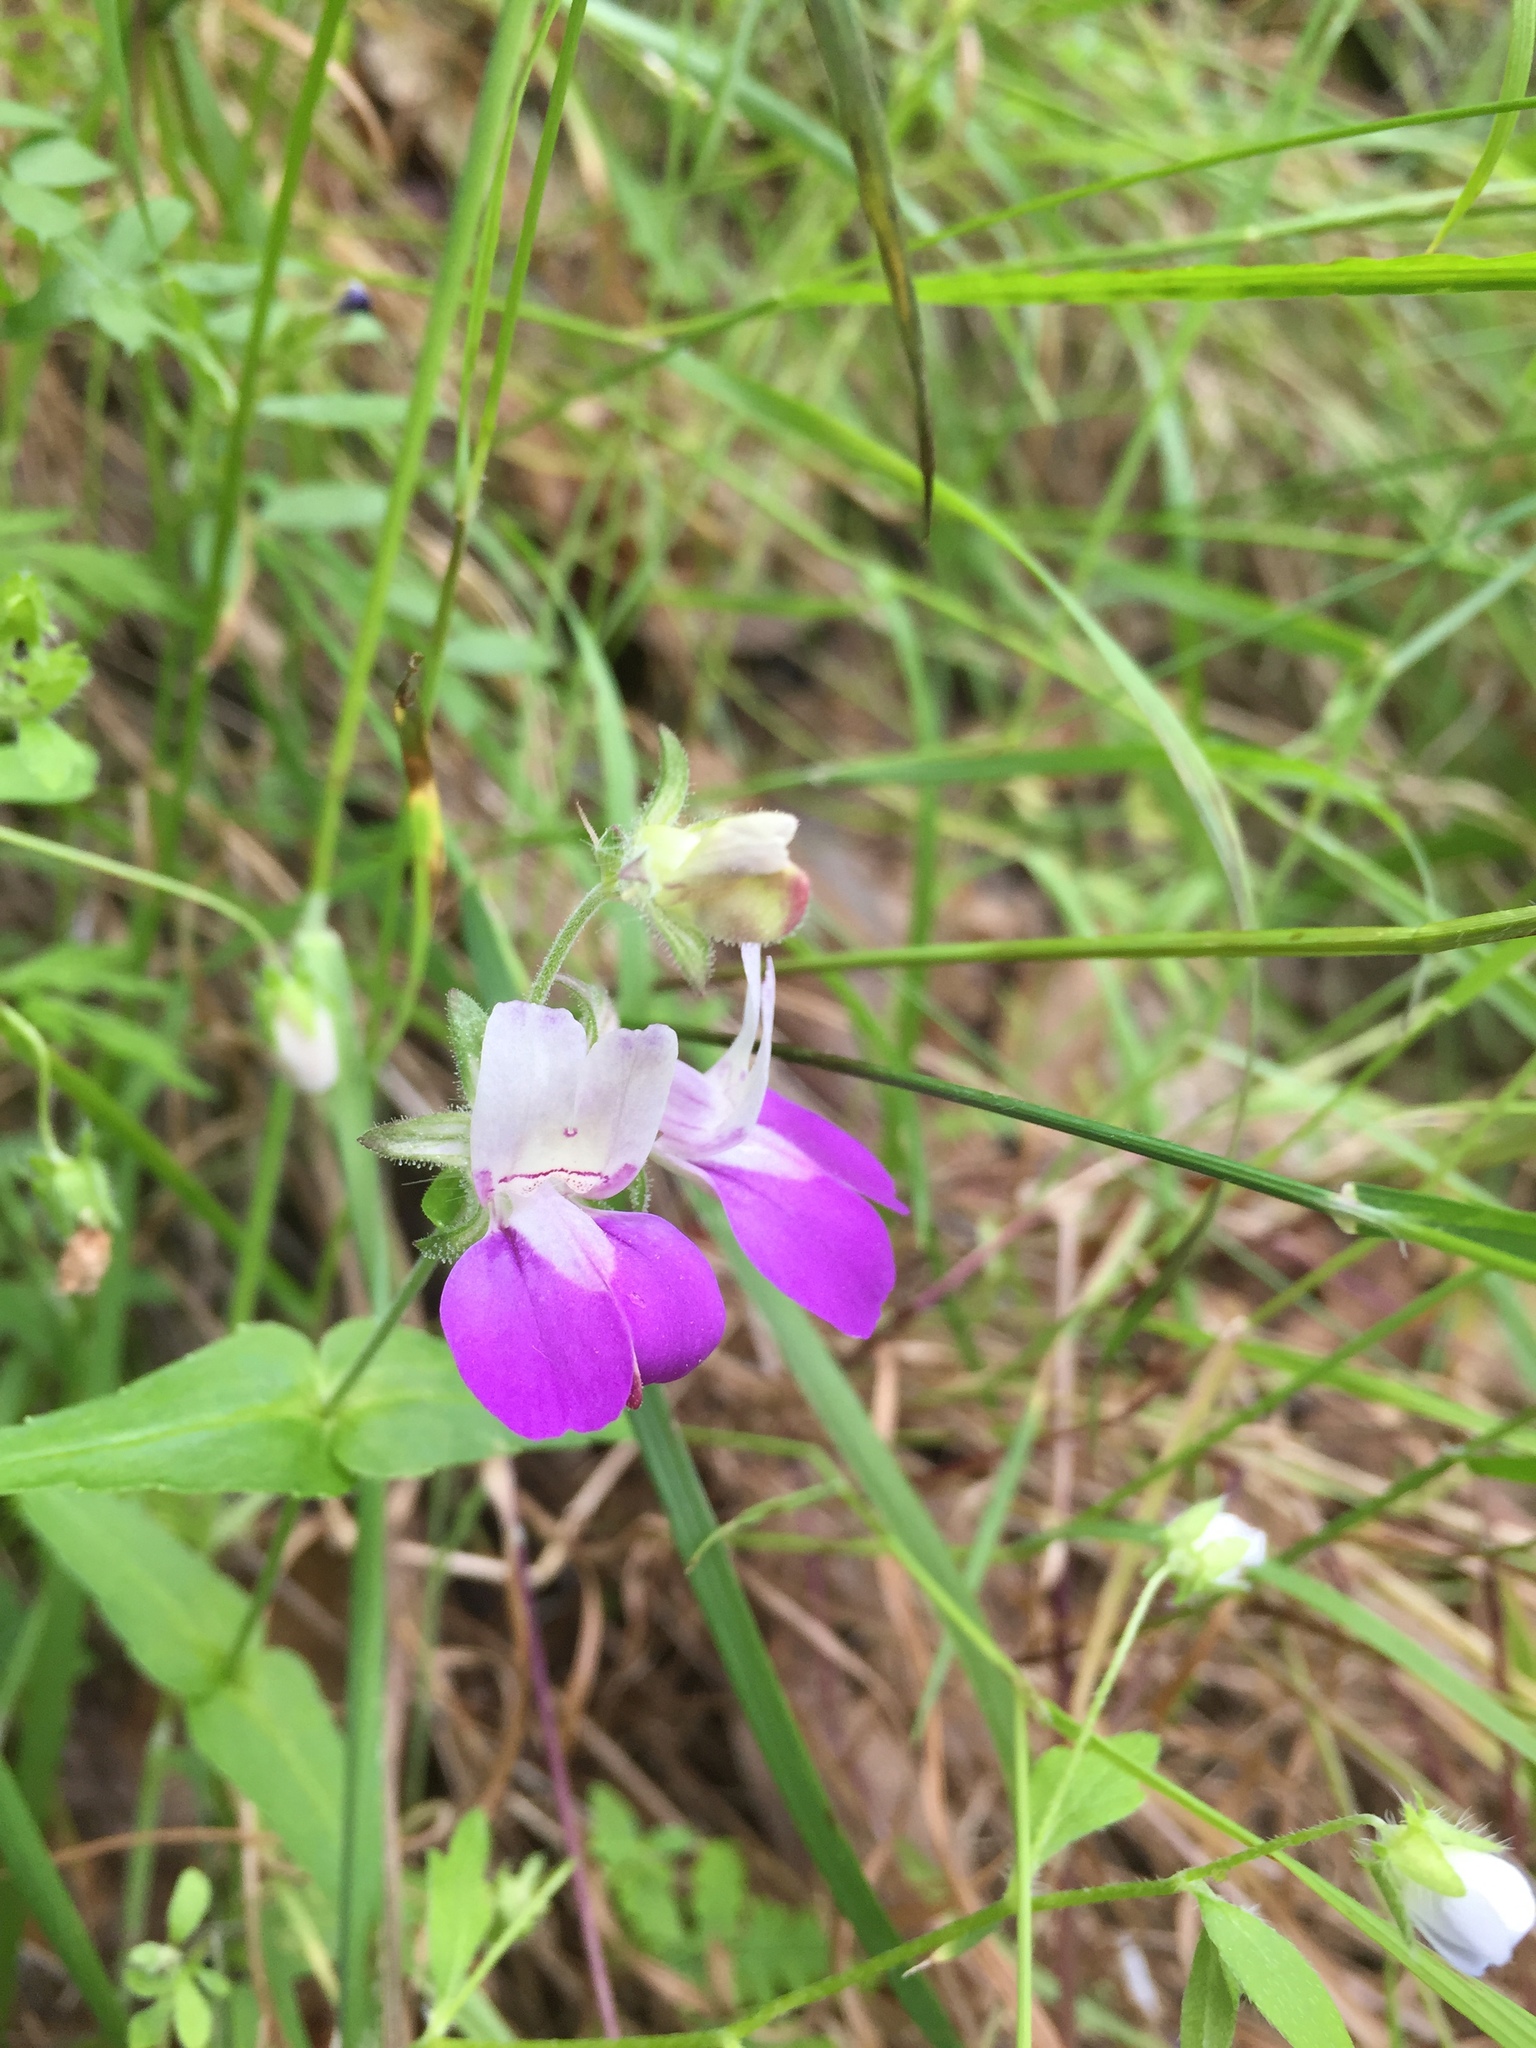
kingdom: Plantae
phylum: Tracheophyta
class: Magnoliopsida
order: Lamiales
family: Plantaginaceae
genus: Collinsia
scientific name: Collinsia heterophylla
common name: Chinese-houses
